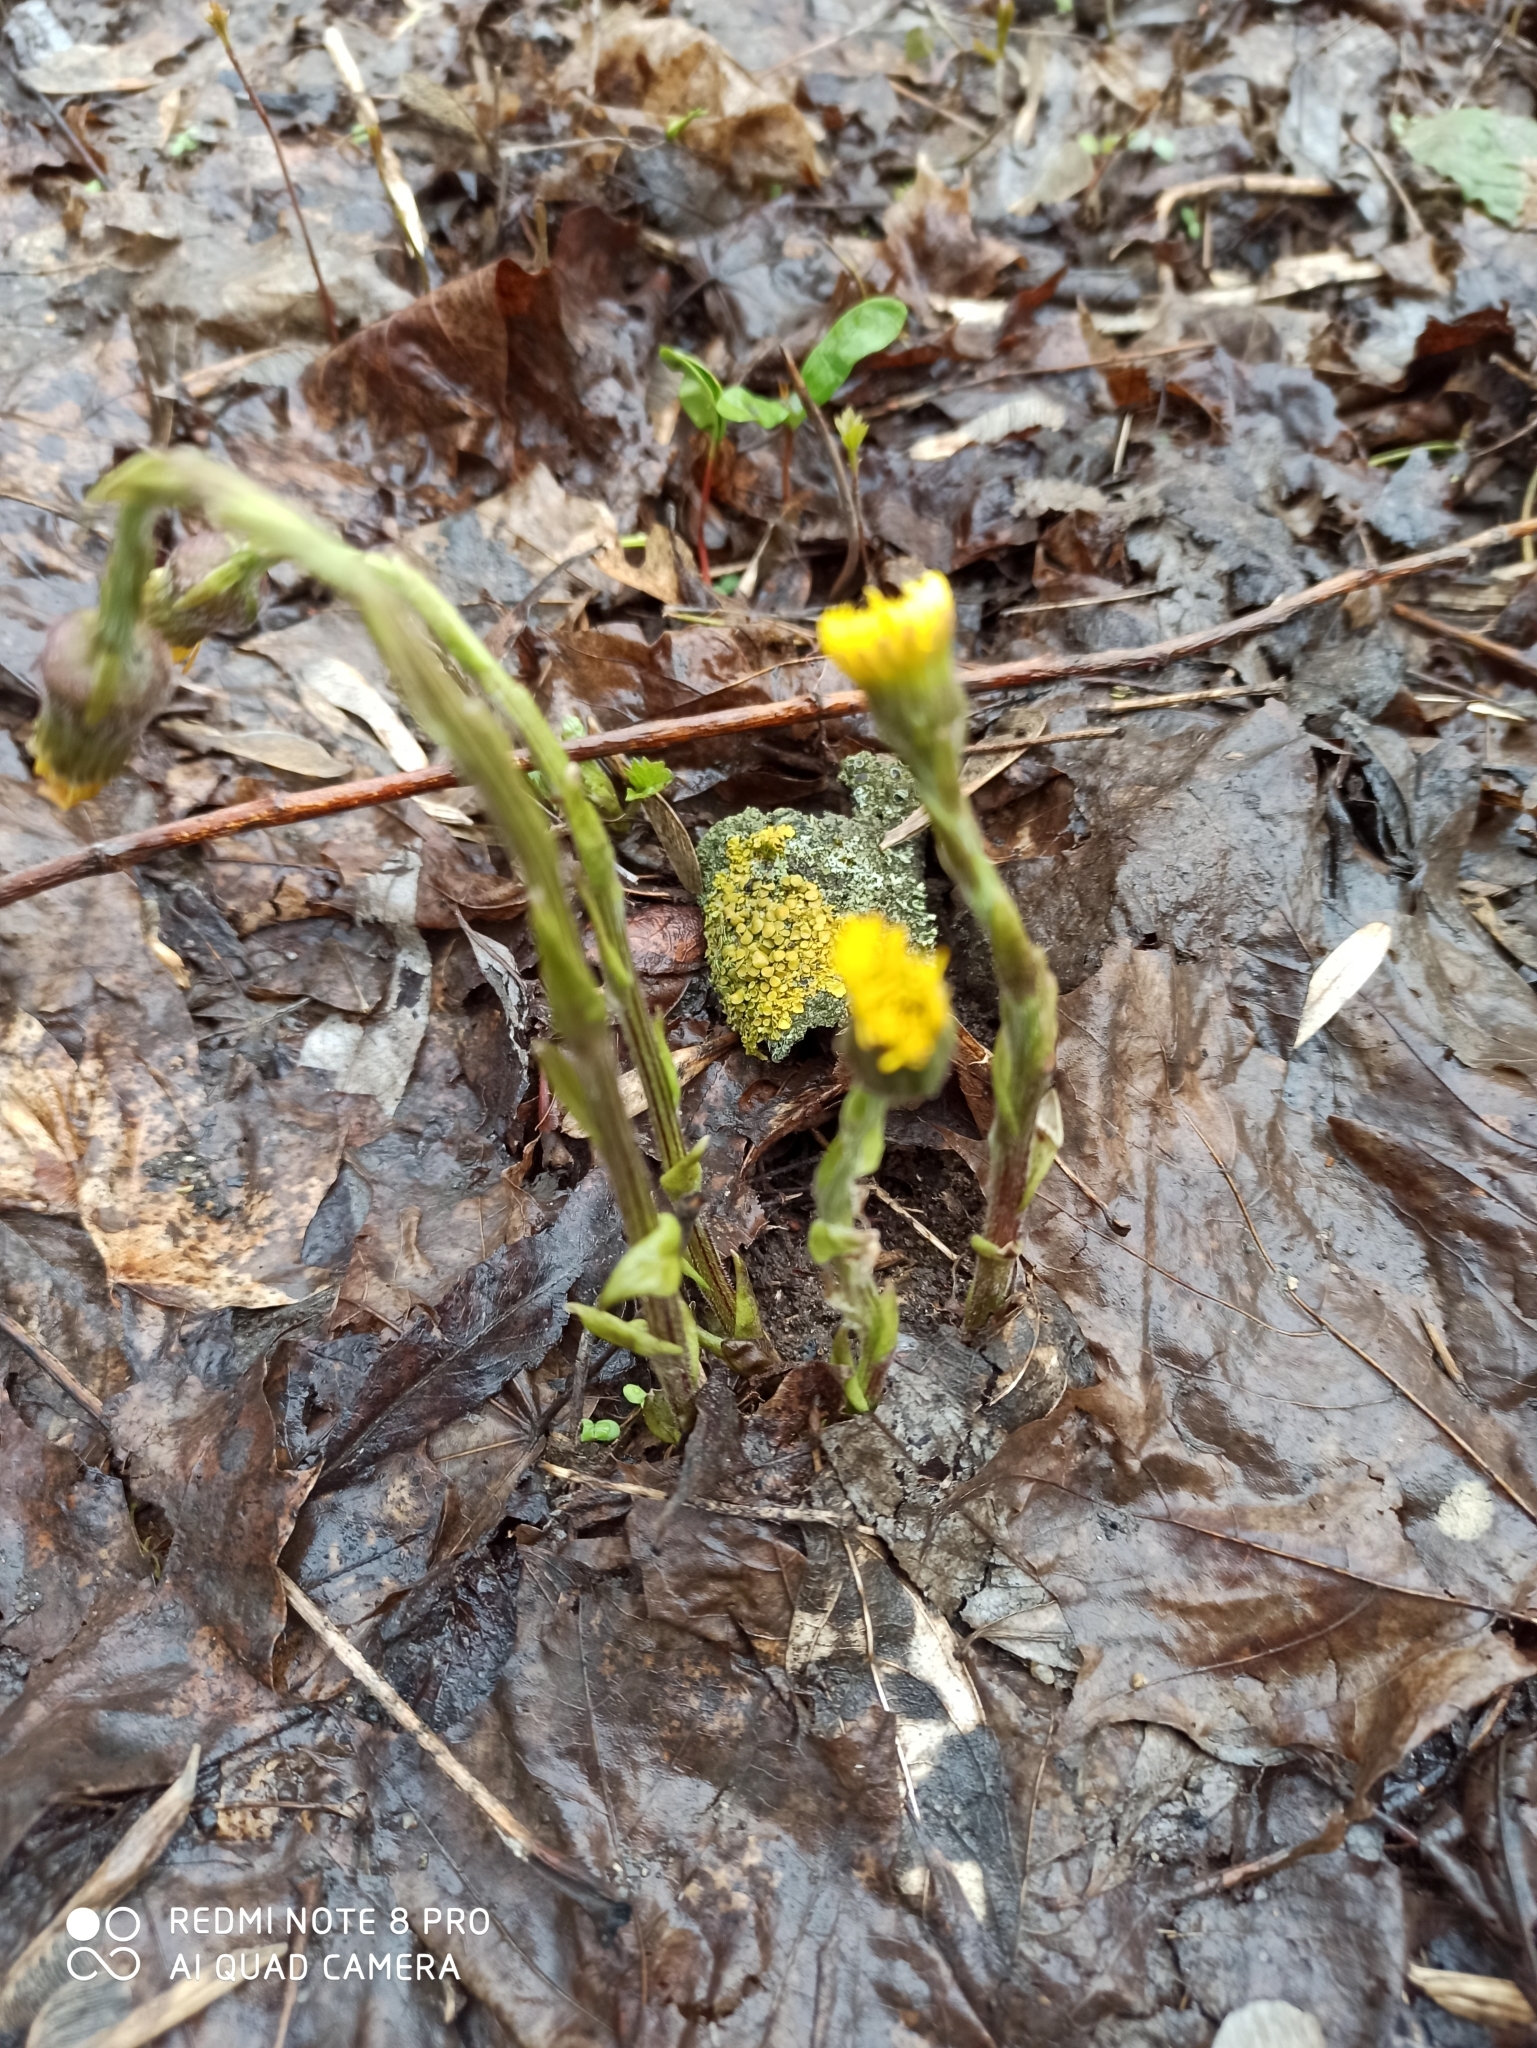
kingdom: Plantae
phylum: Tracheophyta
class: Magnoliopsida
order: Asterales
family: Asteraceae
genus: Tussilago
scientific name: Tussilago farfara
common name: Coltsfoot
